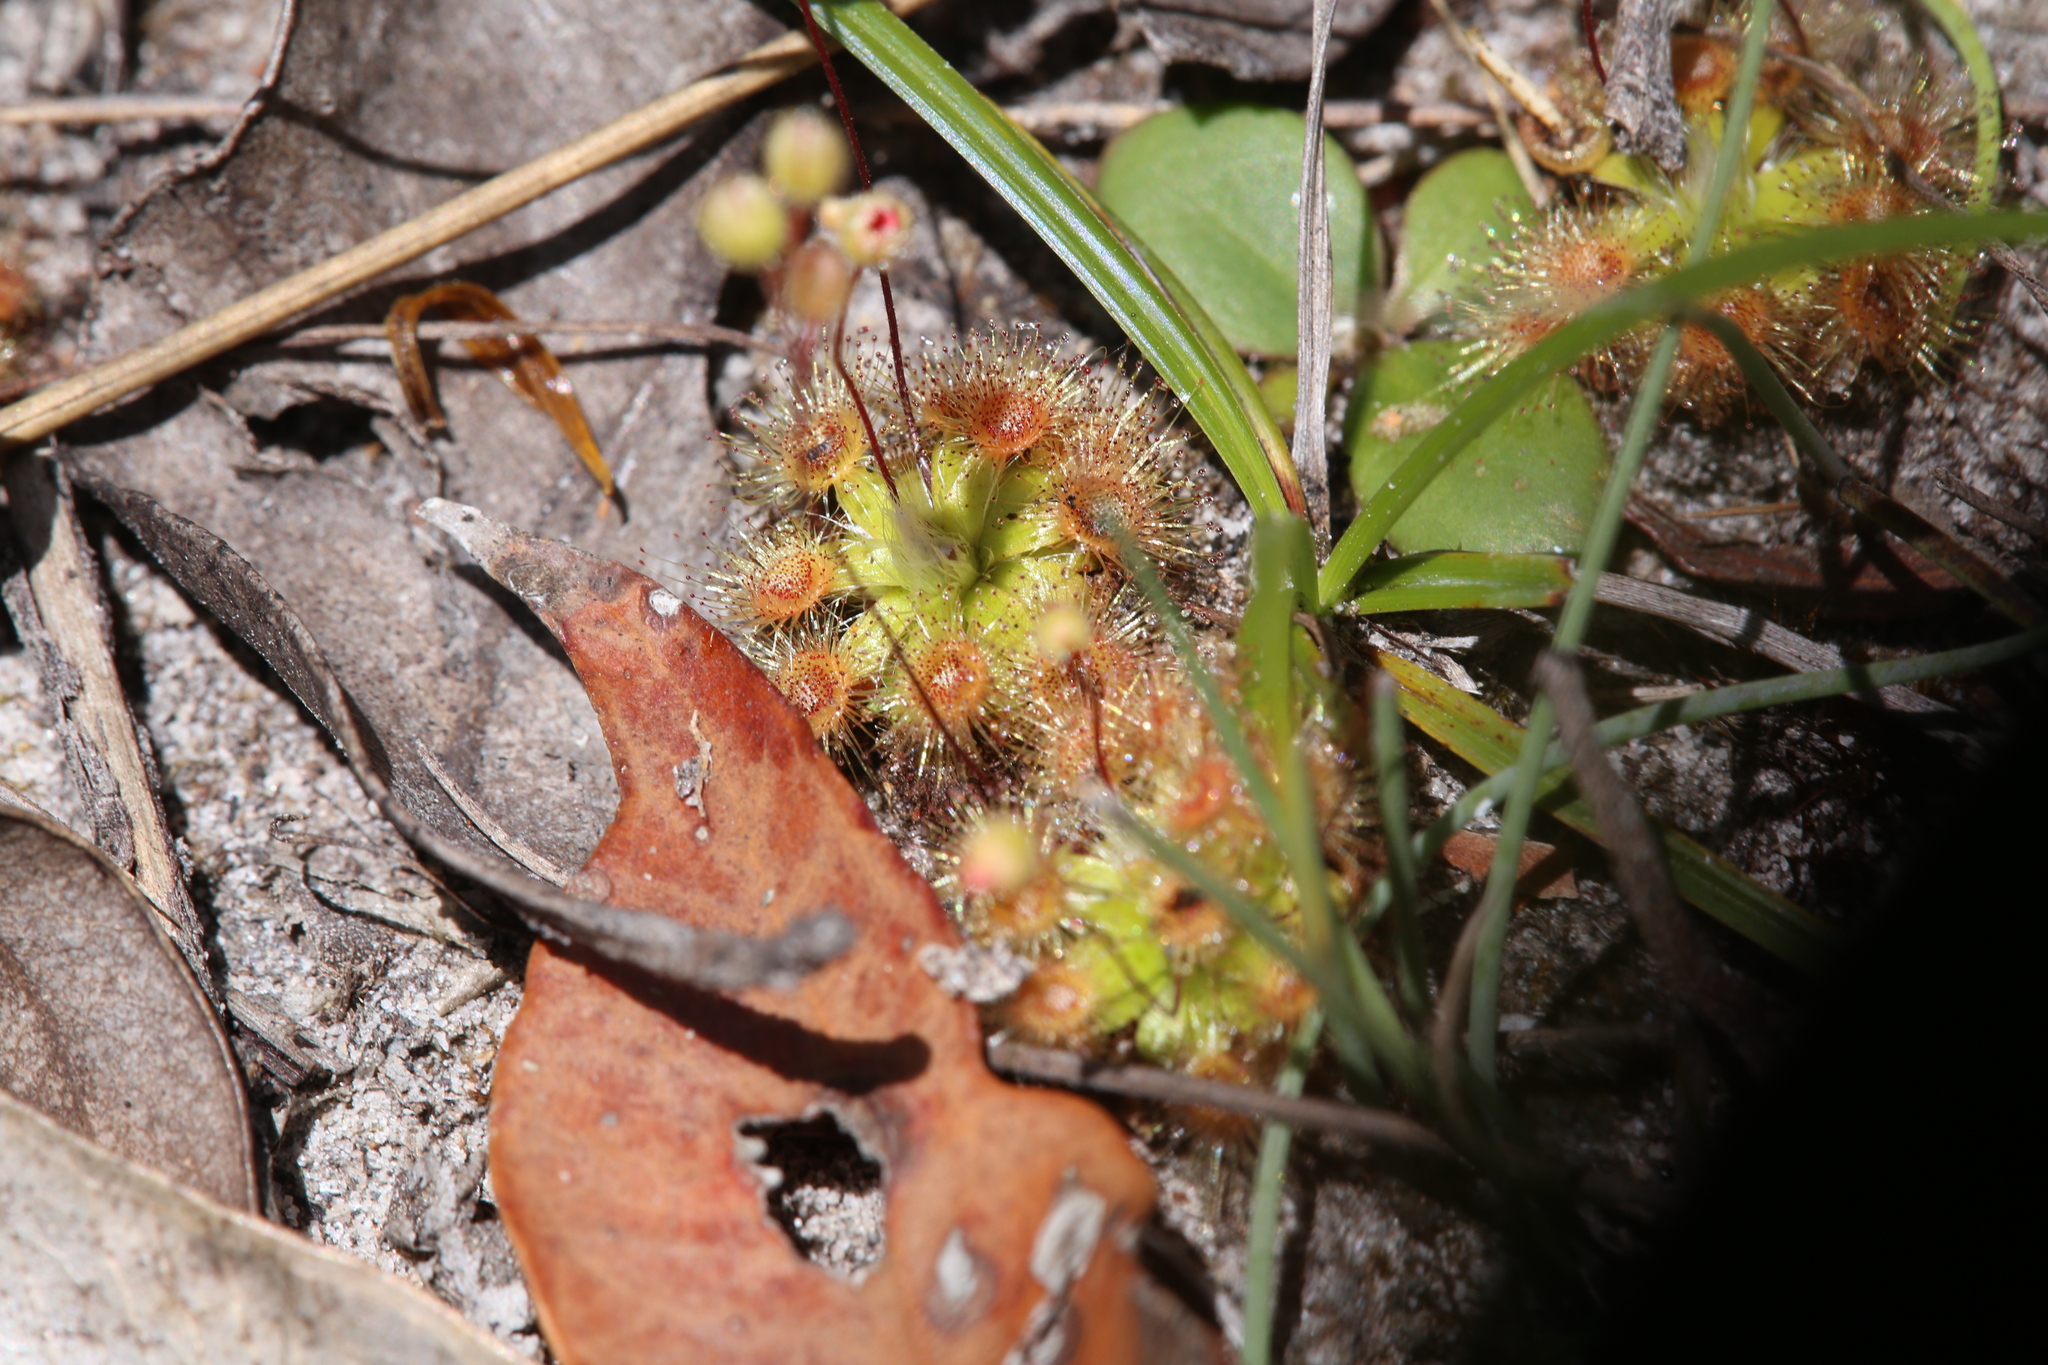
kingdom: Plantae
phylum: Tracheophyta
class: Magnoliopsida
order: Caryophyllales
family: Droseraceae
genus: Drosera
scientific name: Drosera pulchella
